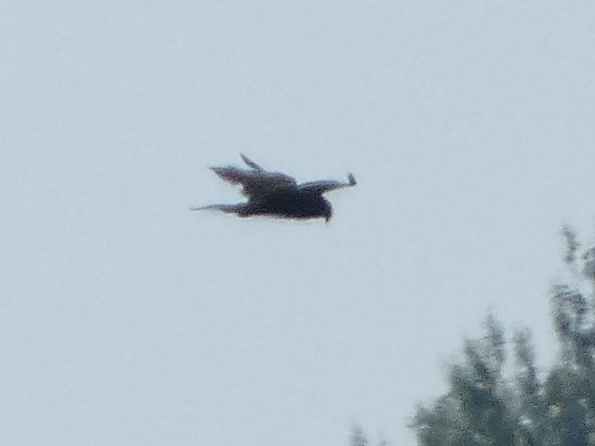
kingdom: Animalia
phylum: Chordata
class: Aves
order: Accipitriformes
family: Accipitridae
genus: Circus
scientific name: Circus aeruginosus
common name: Western marsh harrier
